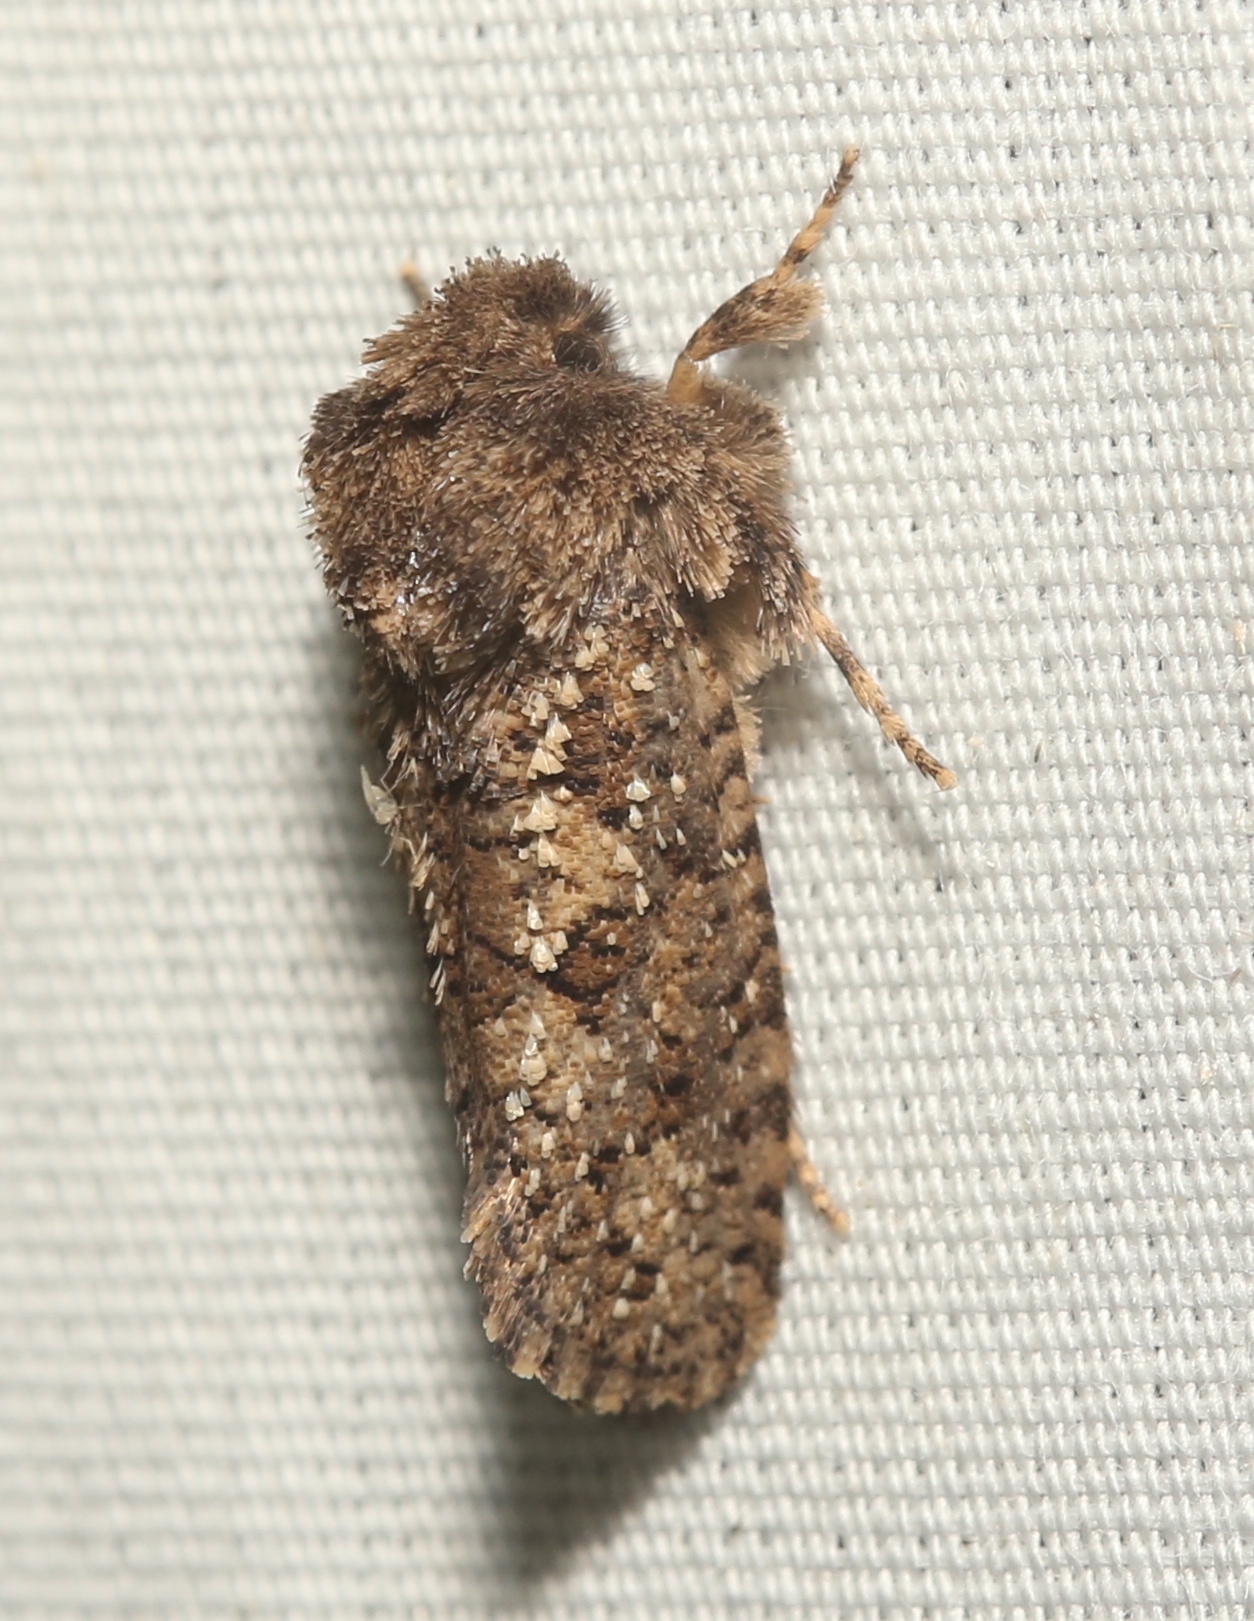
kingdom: Animalia
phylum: Arthropoda
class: Insecta
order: Lepidoptera
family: Tineidae
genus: Acrolophus
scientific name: Acrolophus arcanella
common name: Arcane grass tubeworm moth
